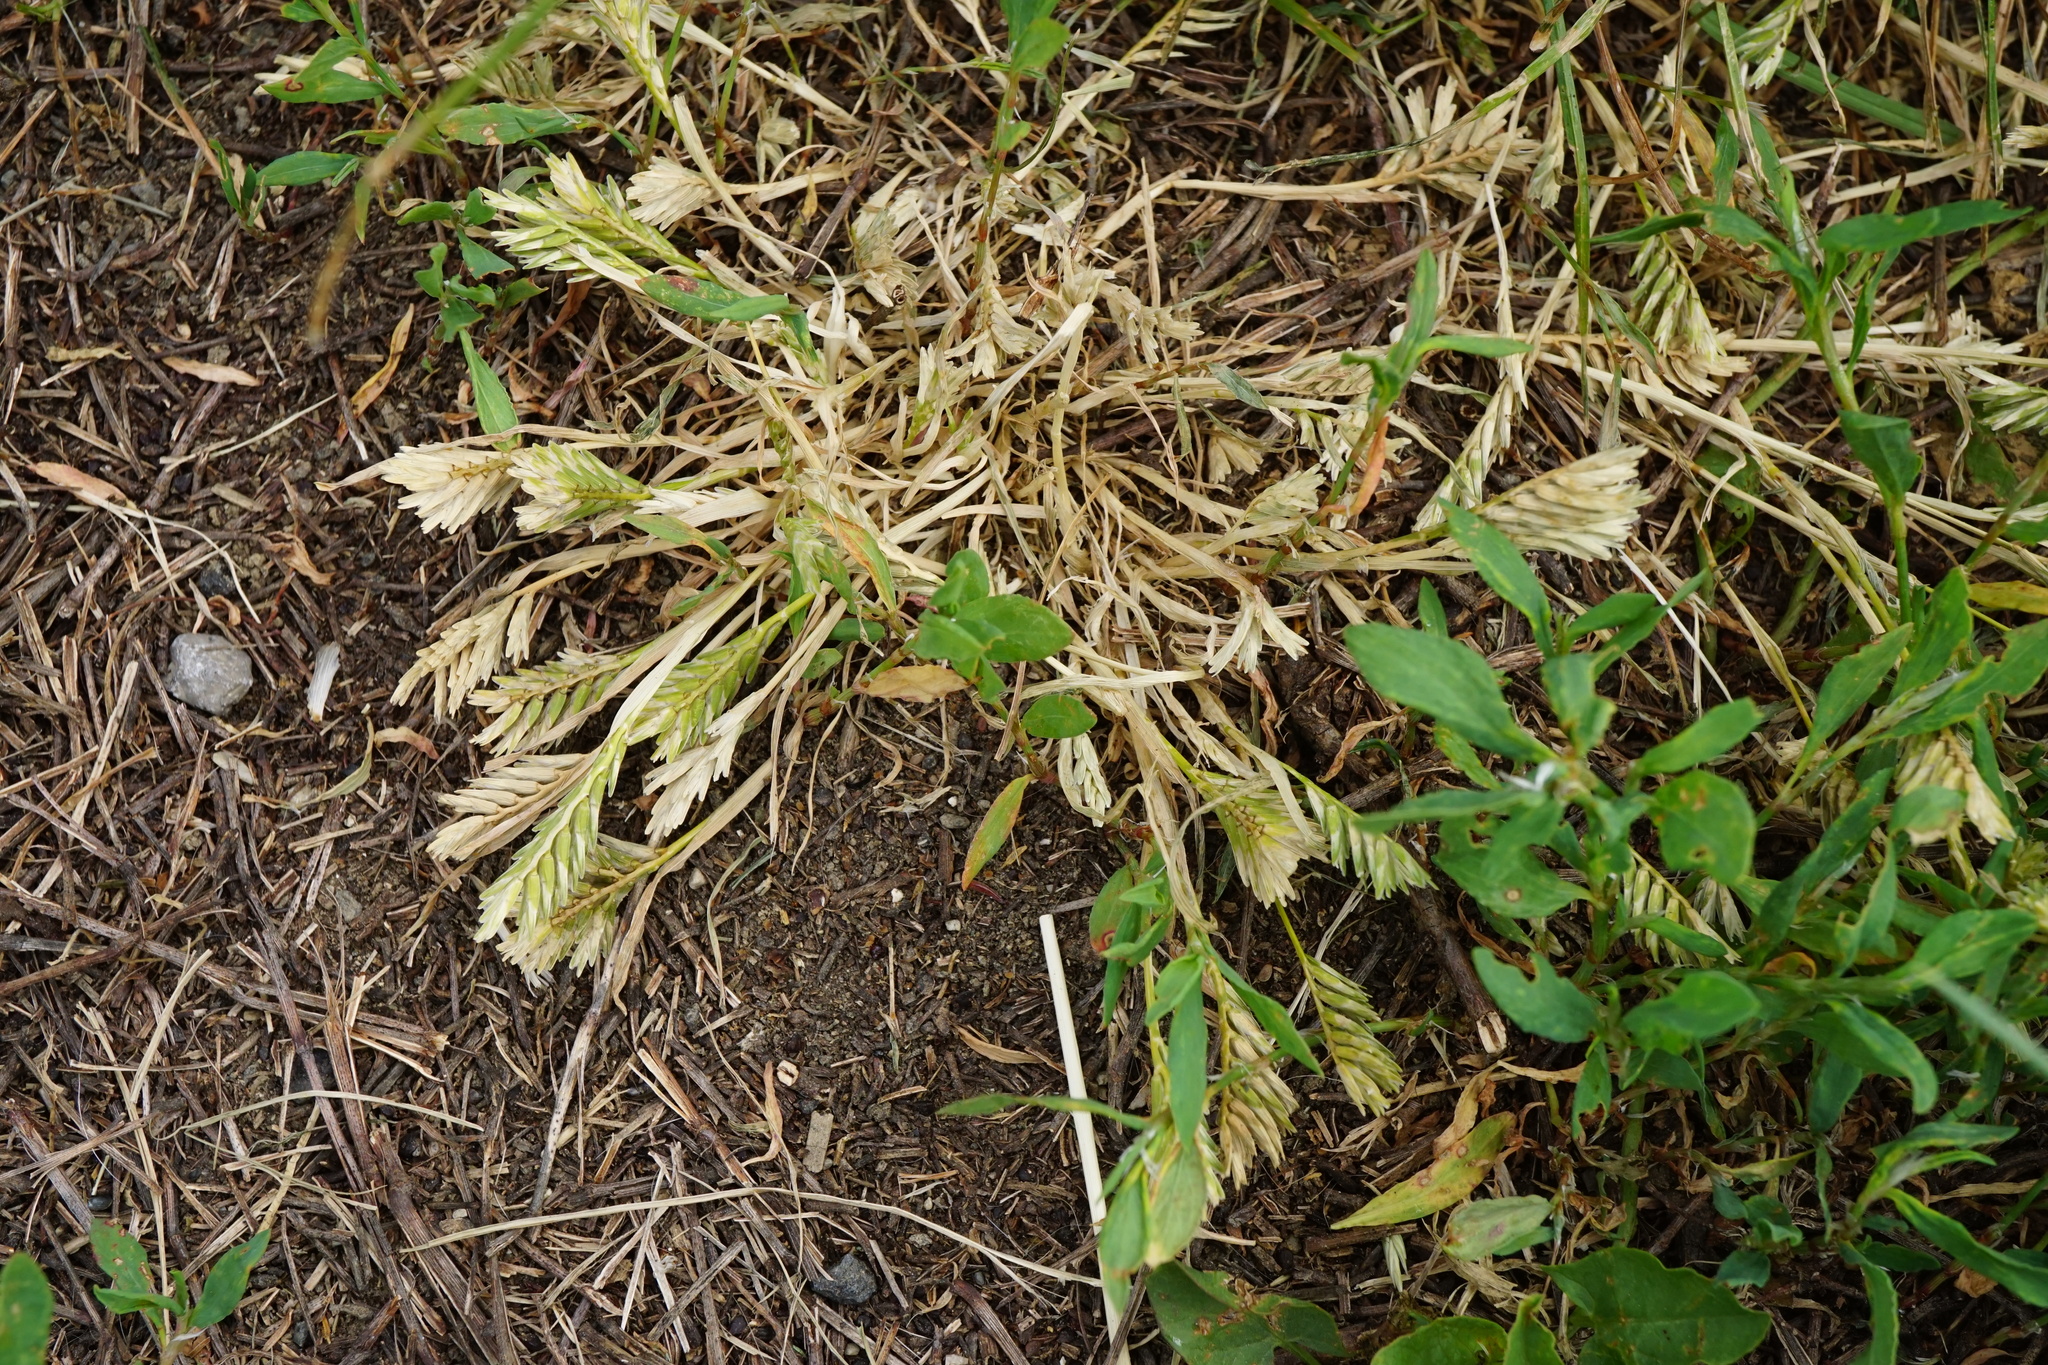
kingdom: Plantae
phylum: Tracheophyta
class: Liliopsida
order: Poales
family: Poaceae
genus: Sclerochloa
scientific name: Sclerochloa dura
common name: Common hardgrass
